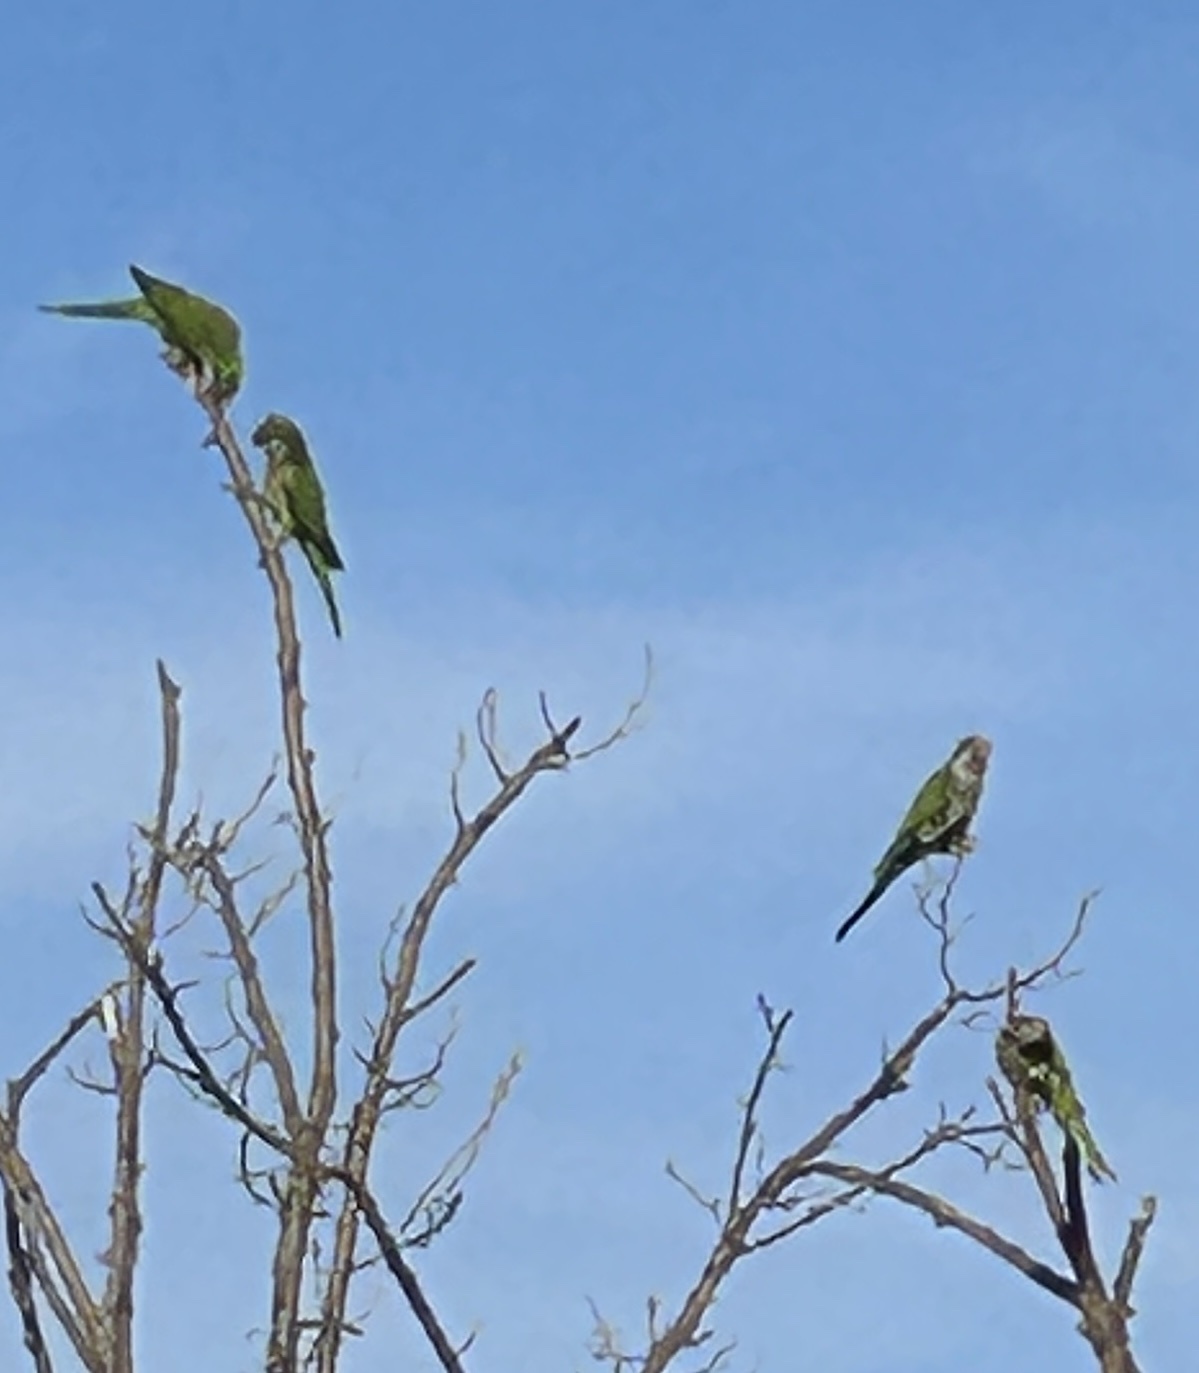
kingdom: Animalia
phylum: Chordata
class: Aves
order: Psittaciformes
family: Psittacidae
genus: Myiopsitta
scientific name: Myiopsitta monachus
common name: Monk parakeet
